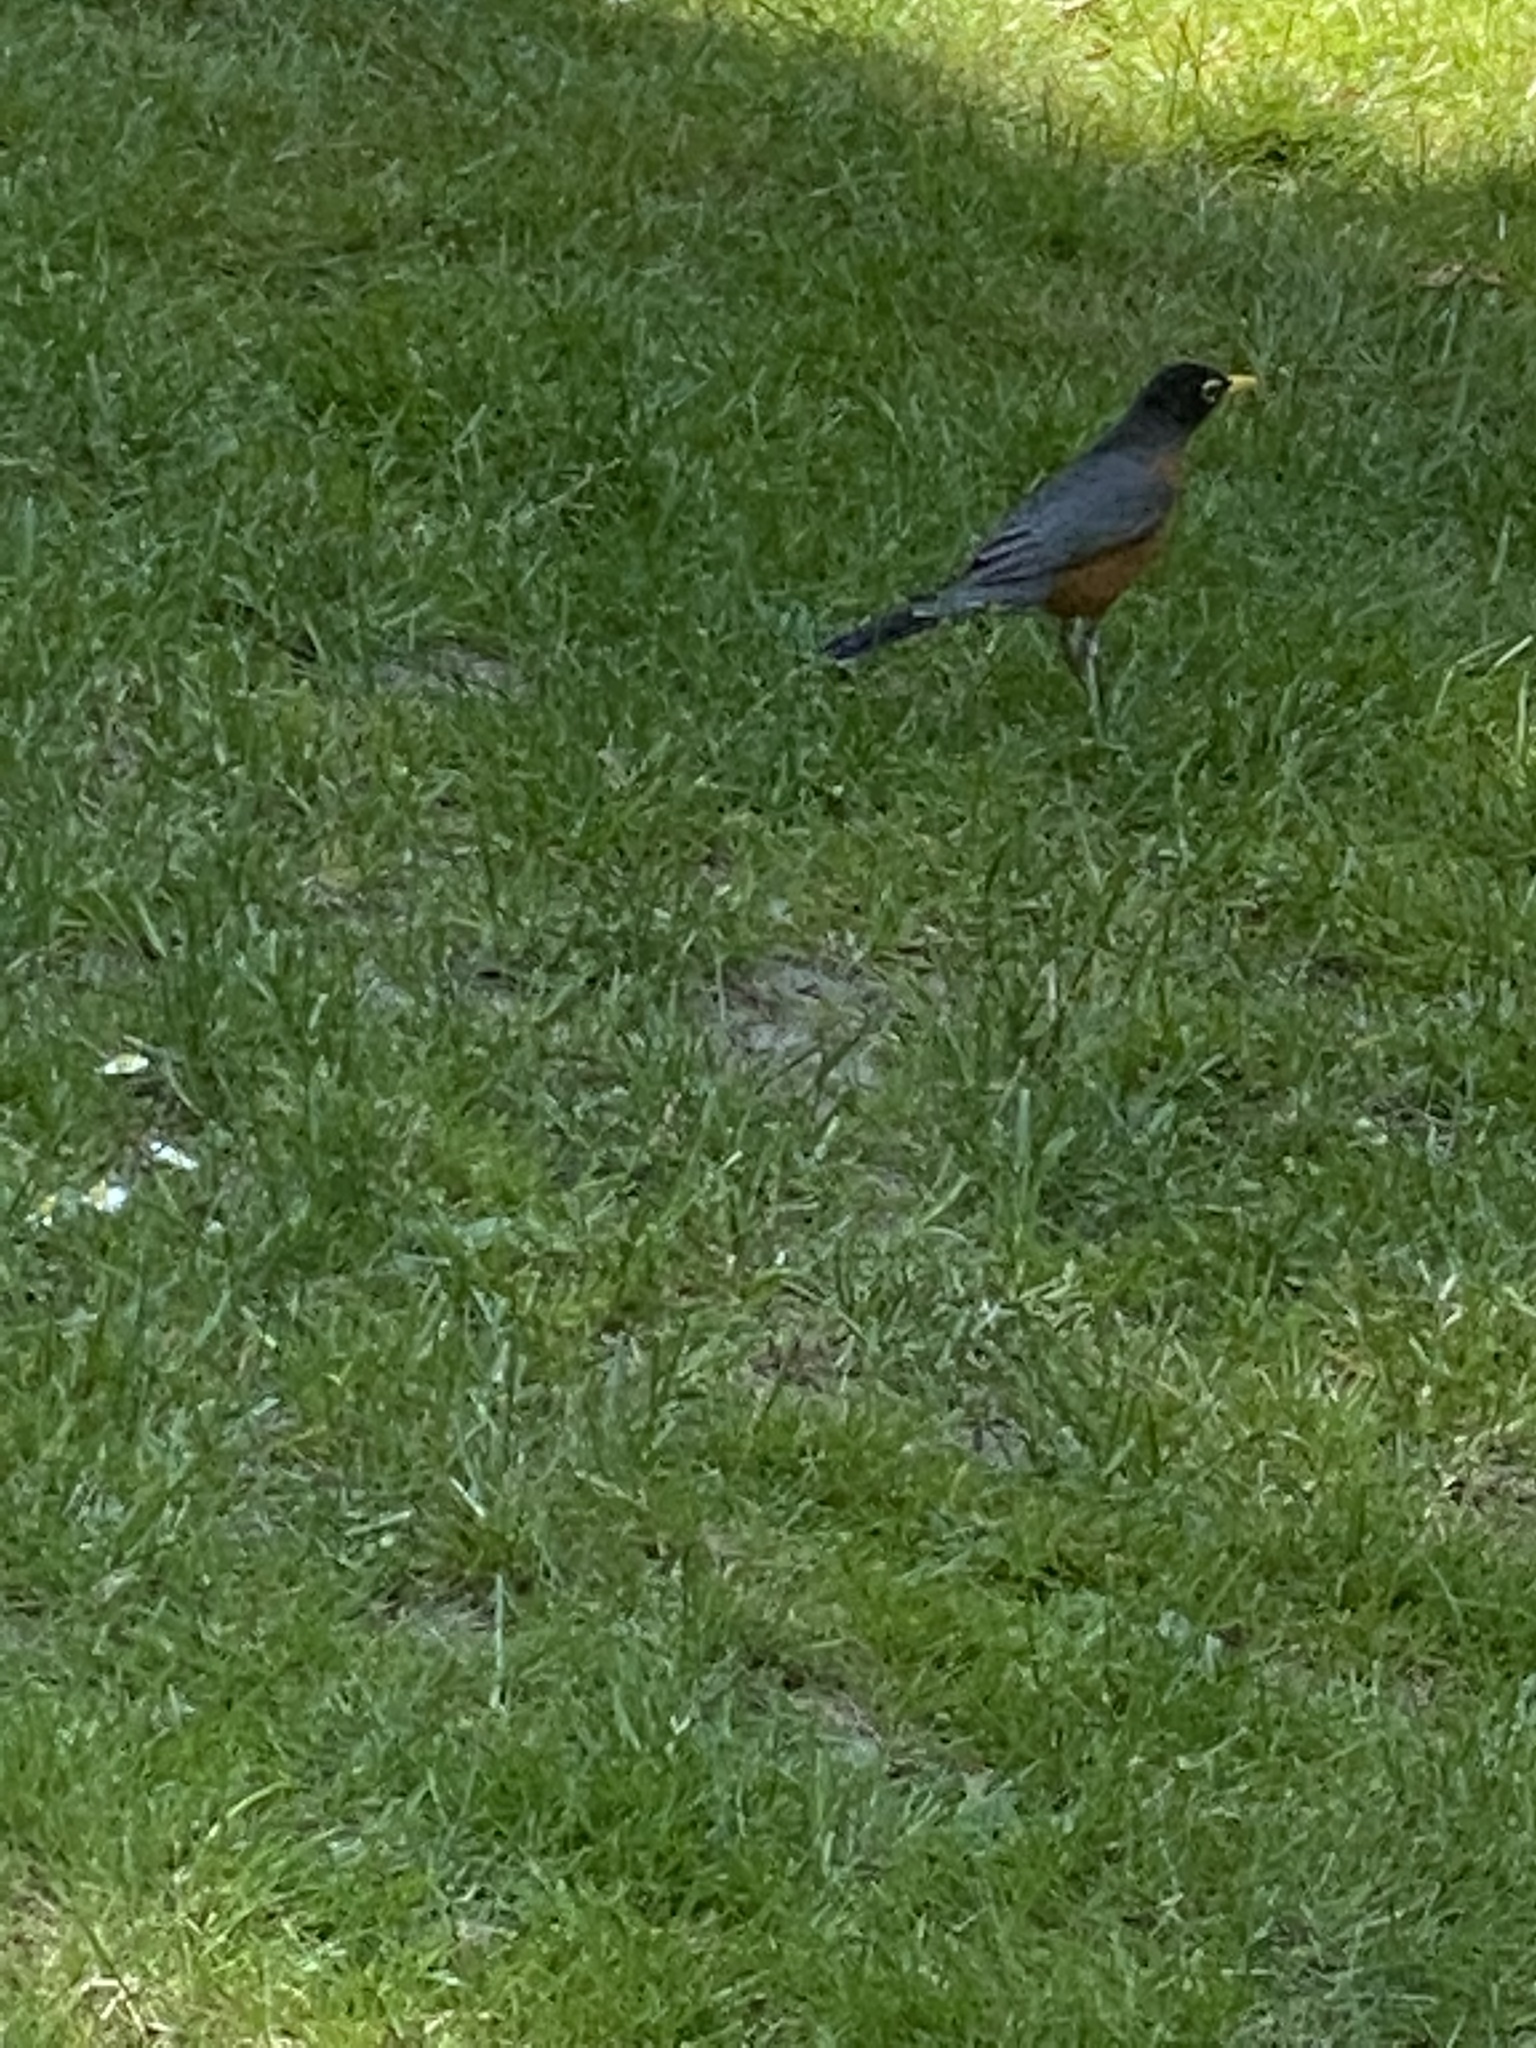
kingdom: Animalia
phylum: Chordata
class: Aves
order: Passeriformes
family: Turdidae
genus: Turdus
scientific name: Turdus migratorius
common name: American robin
